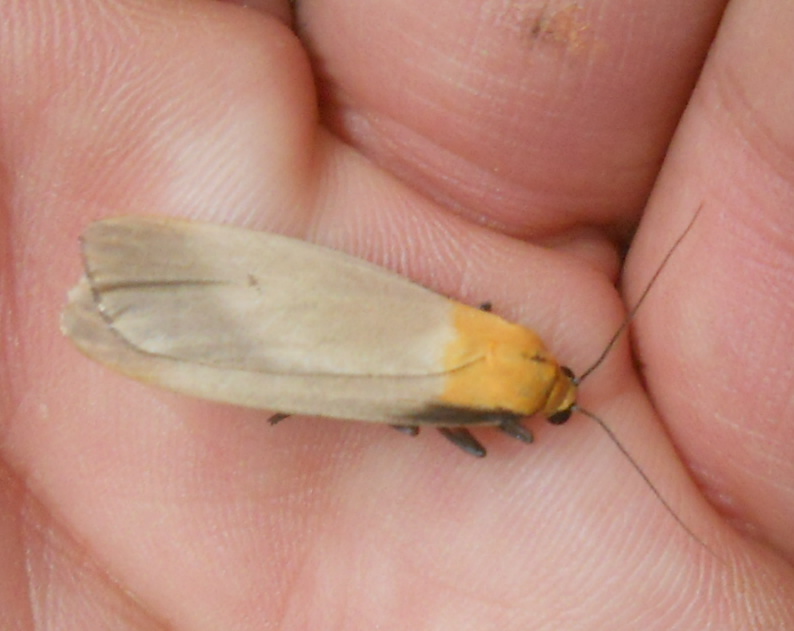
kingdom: Animalia
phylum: Arthropoda
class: Insecta
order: Lepidoptera
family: Erebidae
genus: Lithosia
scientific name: Lithosia quadra
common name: Four-spotted footman
